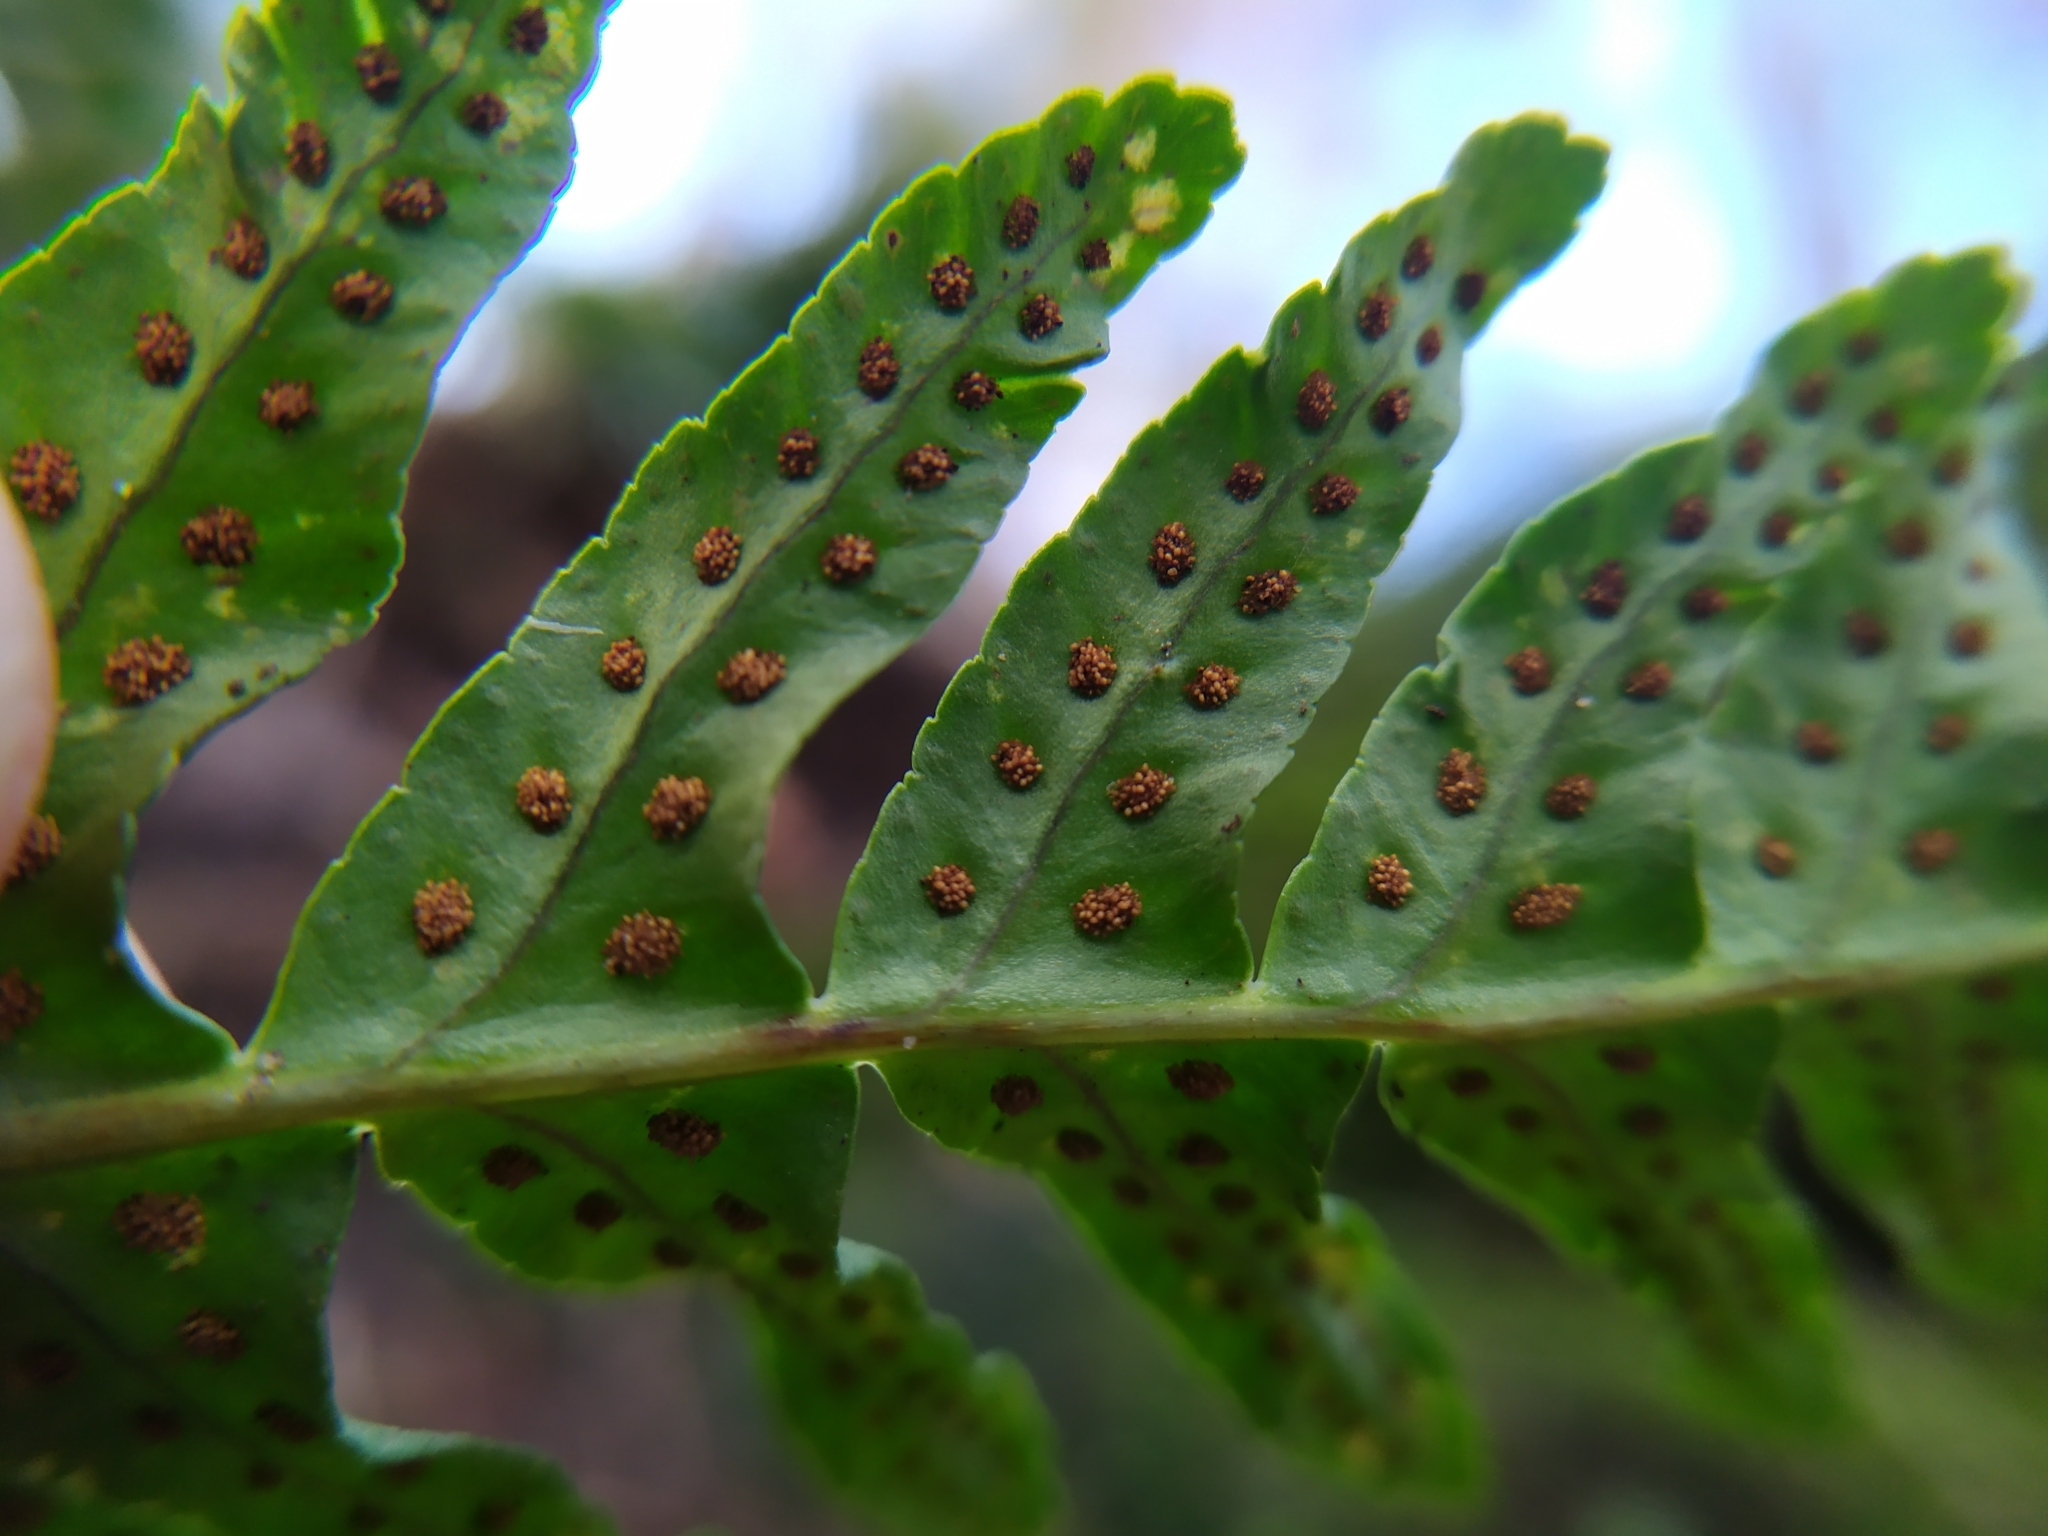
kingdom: Plantae
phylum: Tracheophyta
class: Polypodiopsida
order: Polypodiales
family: Polypodiaceae
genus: Polypodium
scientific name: Polypodium vulgare
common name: Common polypody
